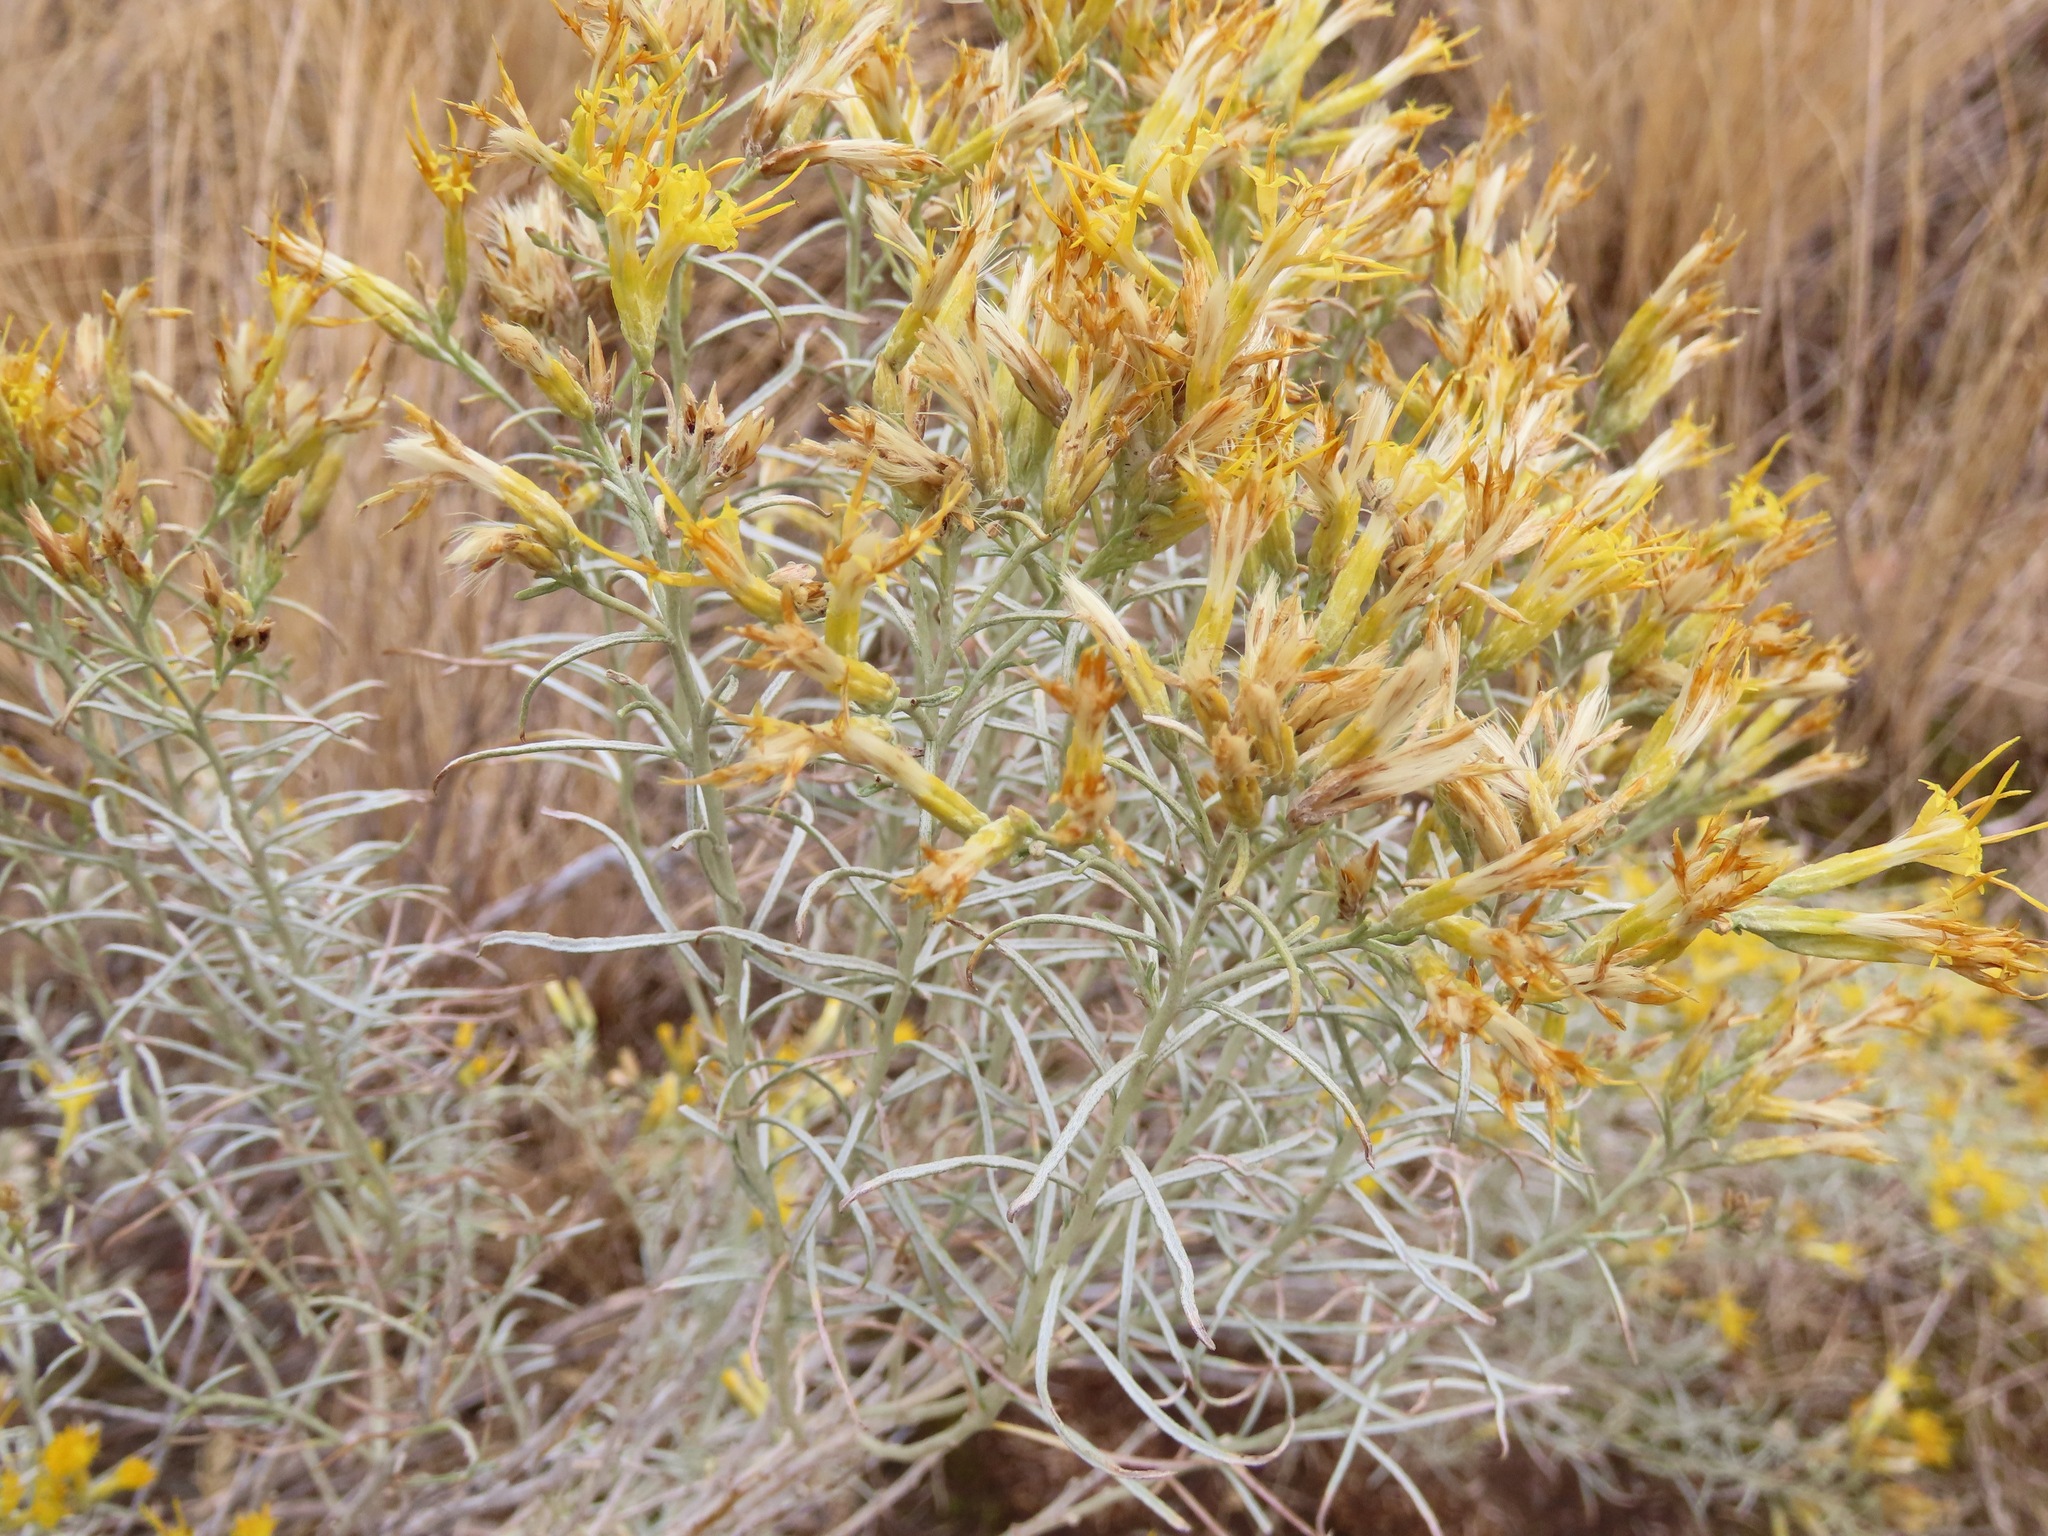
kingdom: Plantae
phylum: Tracheophyta
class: Magnoliopsida
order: Asterales
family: Asteraceae
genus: Ericameria
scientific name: Ericameria nauseosa
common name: Rubber rabbitbrush
